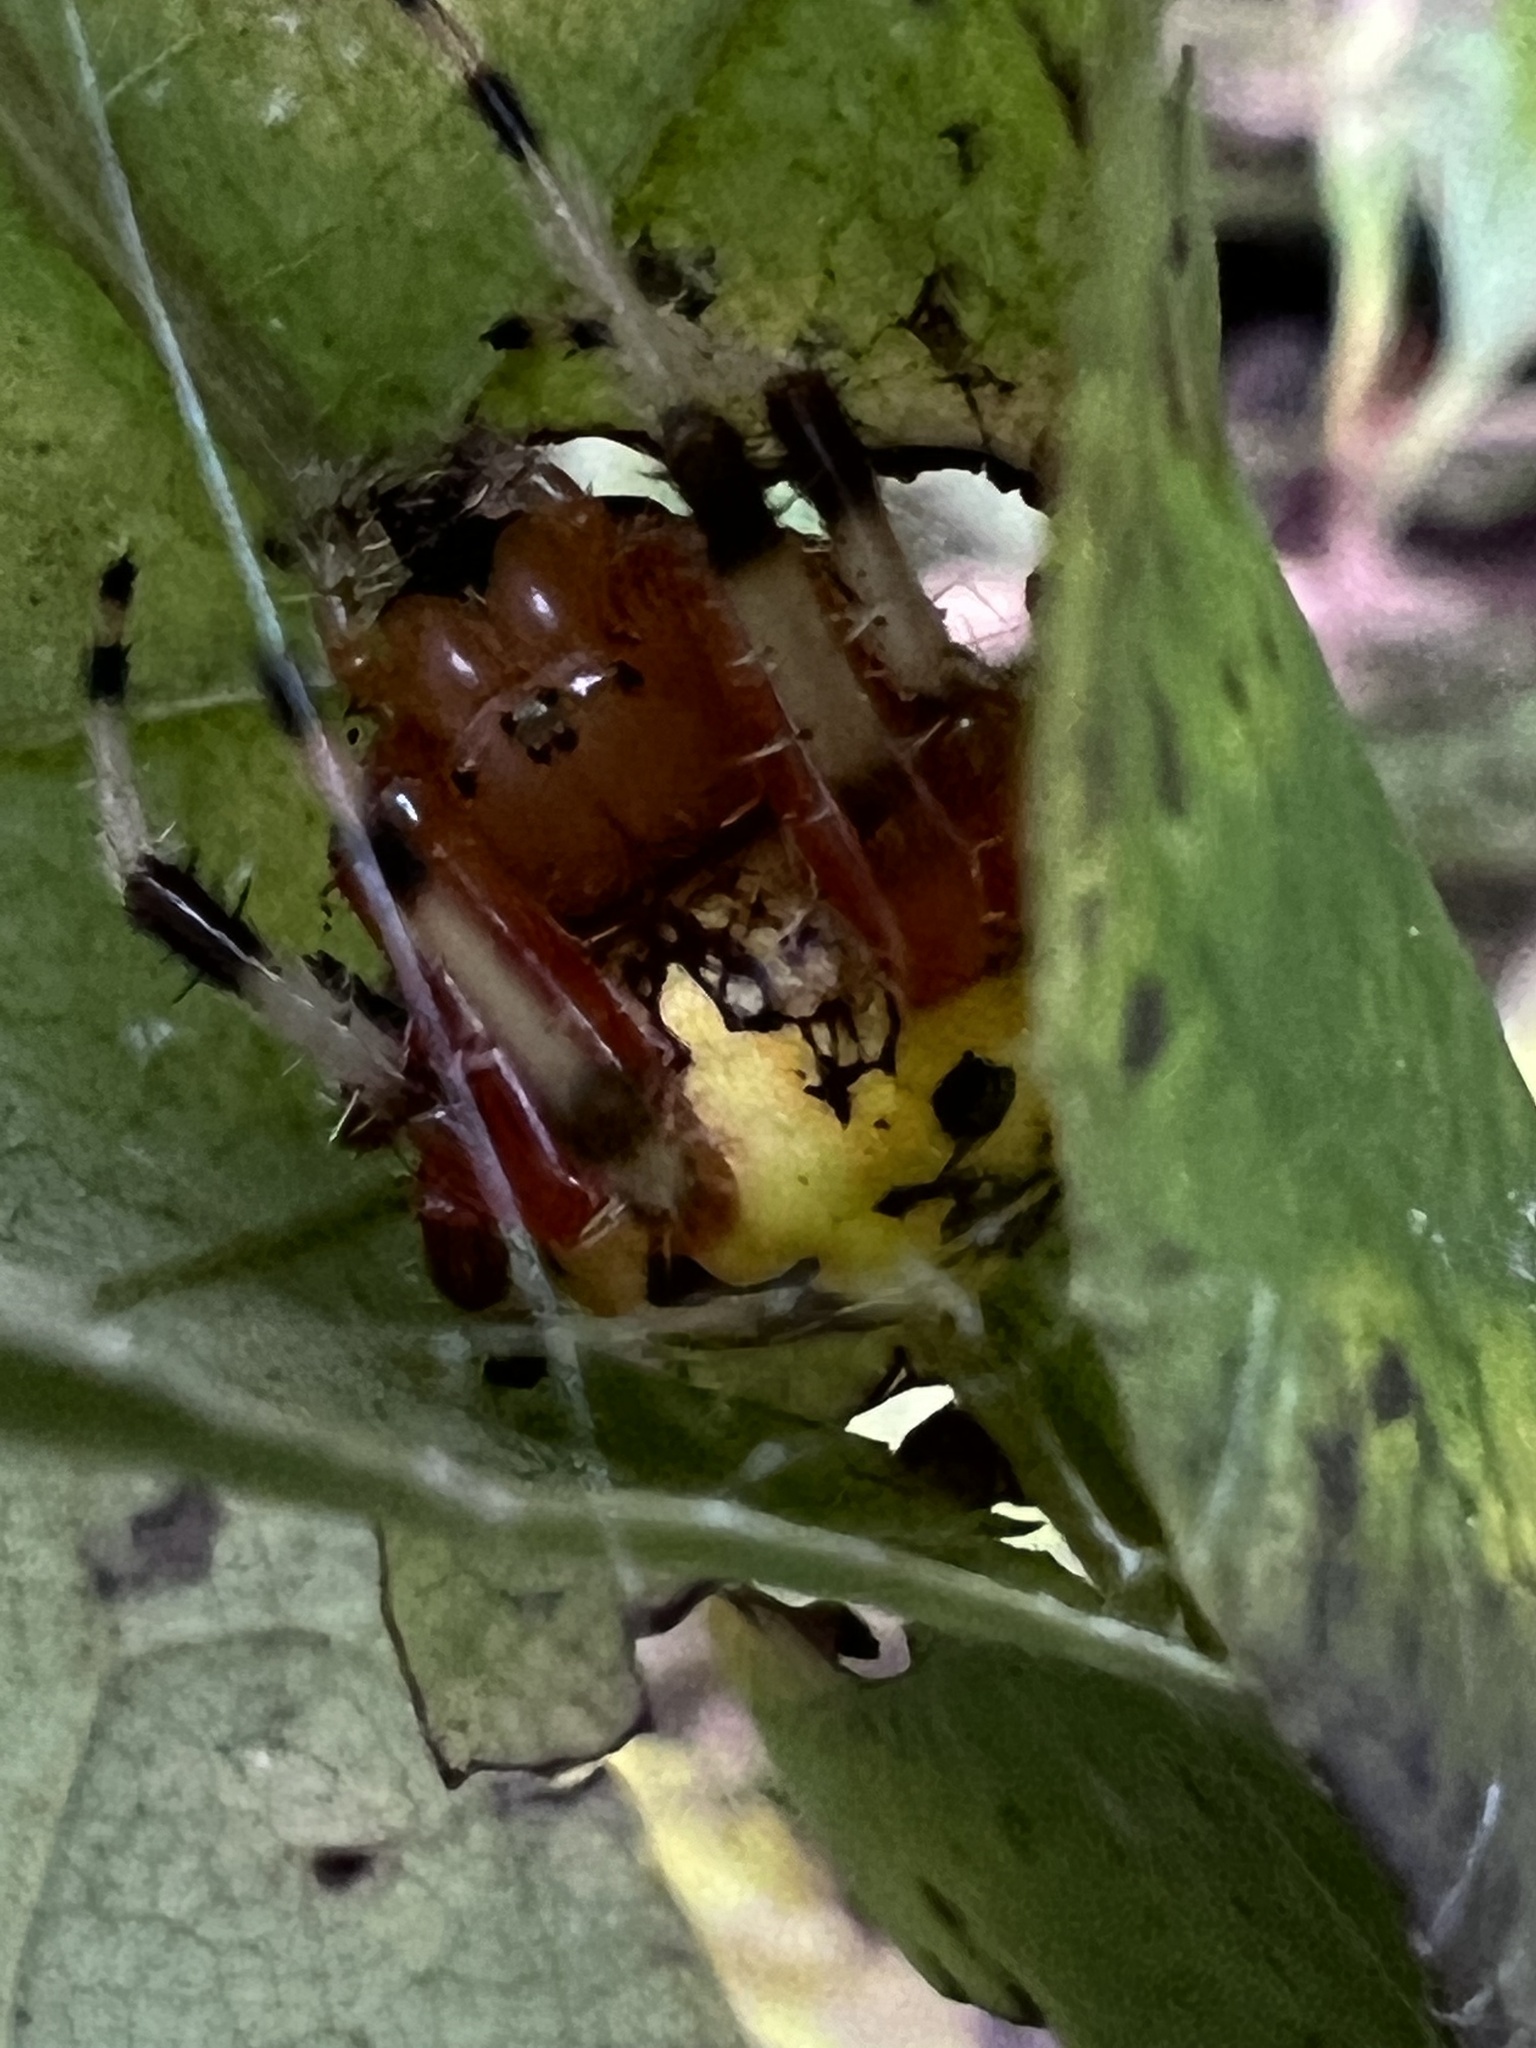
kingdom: Animalia
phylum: Arthropoda
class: Arachnida
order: Araneae
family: Araneidae
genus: Araneus
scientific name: Araneus marmoreus
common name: Marbled orbweaver
